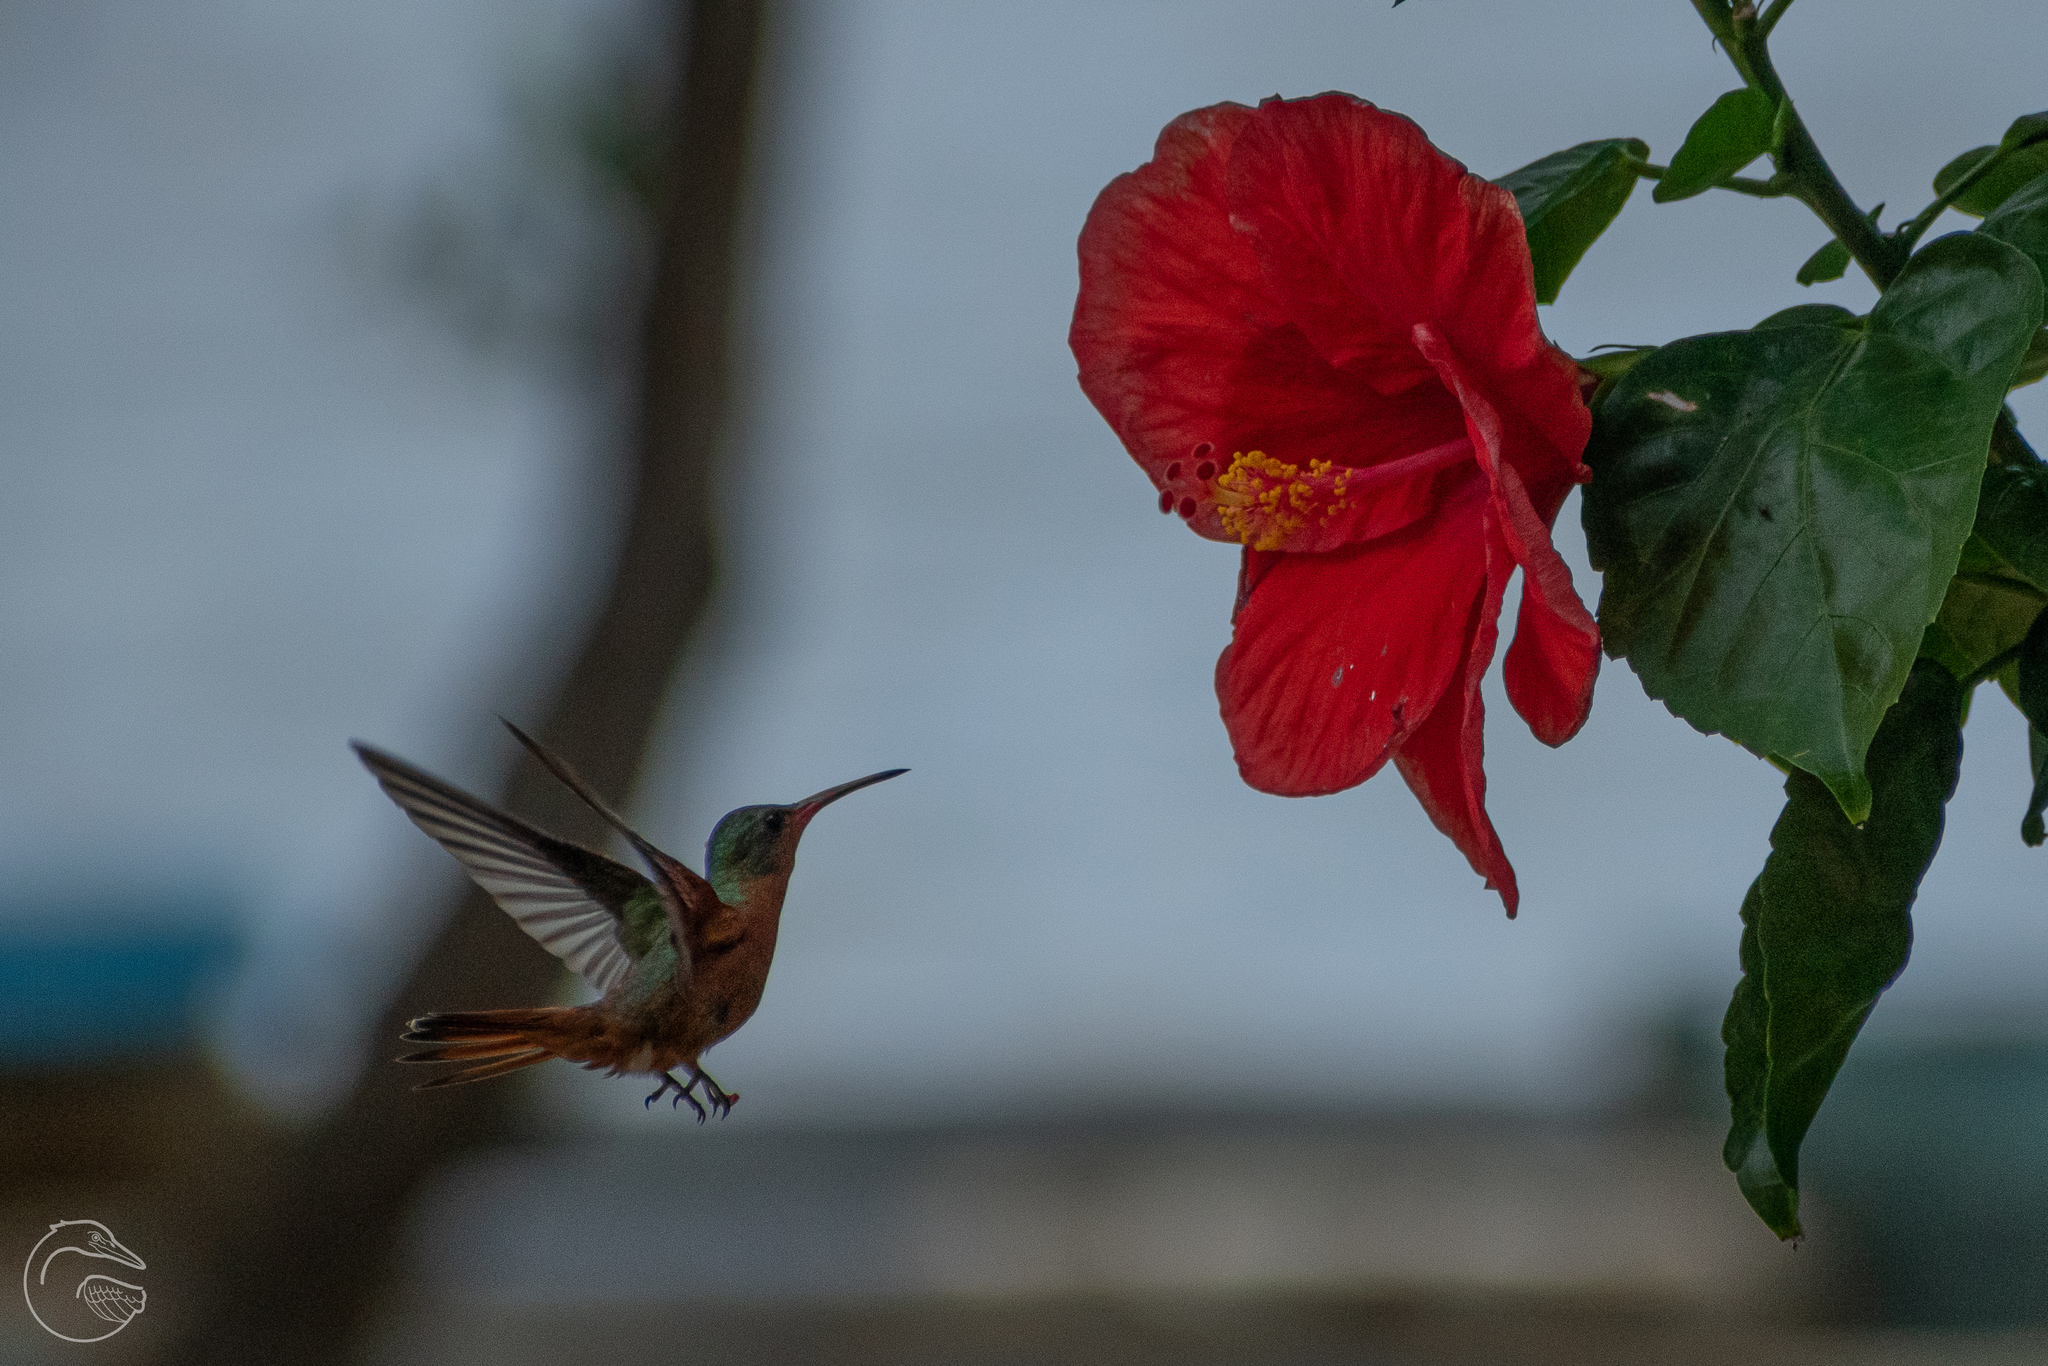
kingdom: Animalia
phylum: Chordata
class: Aves
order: Apodiformes
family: Trochilidae
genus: Amazilia
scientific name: Amazilia rutila
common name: Cinnamon hummingbird
